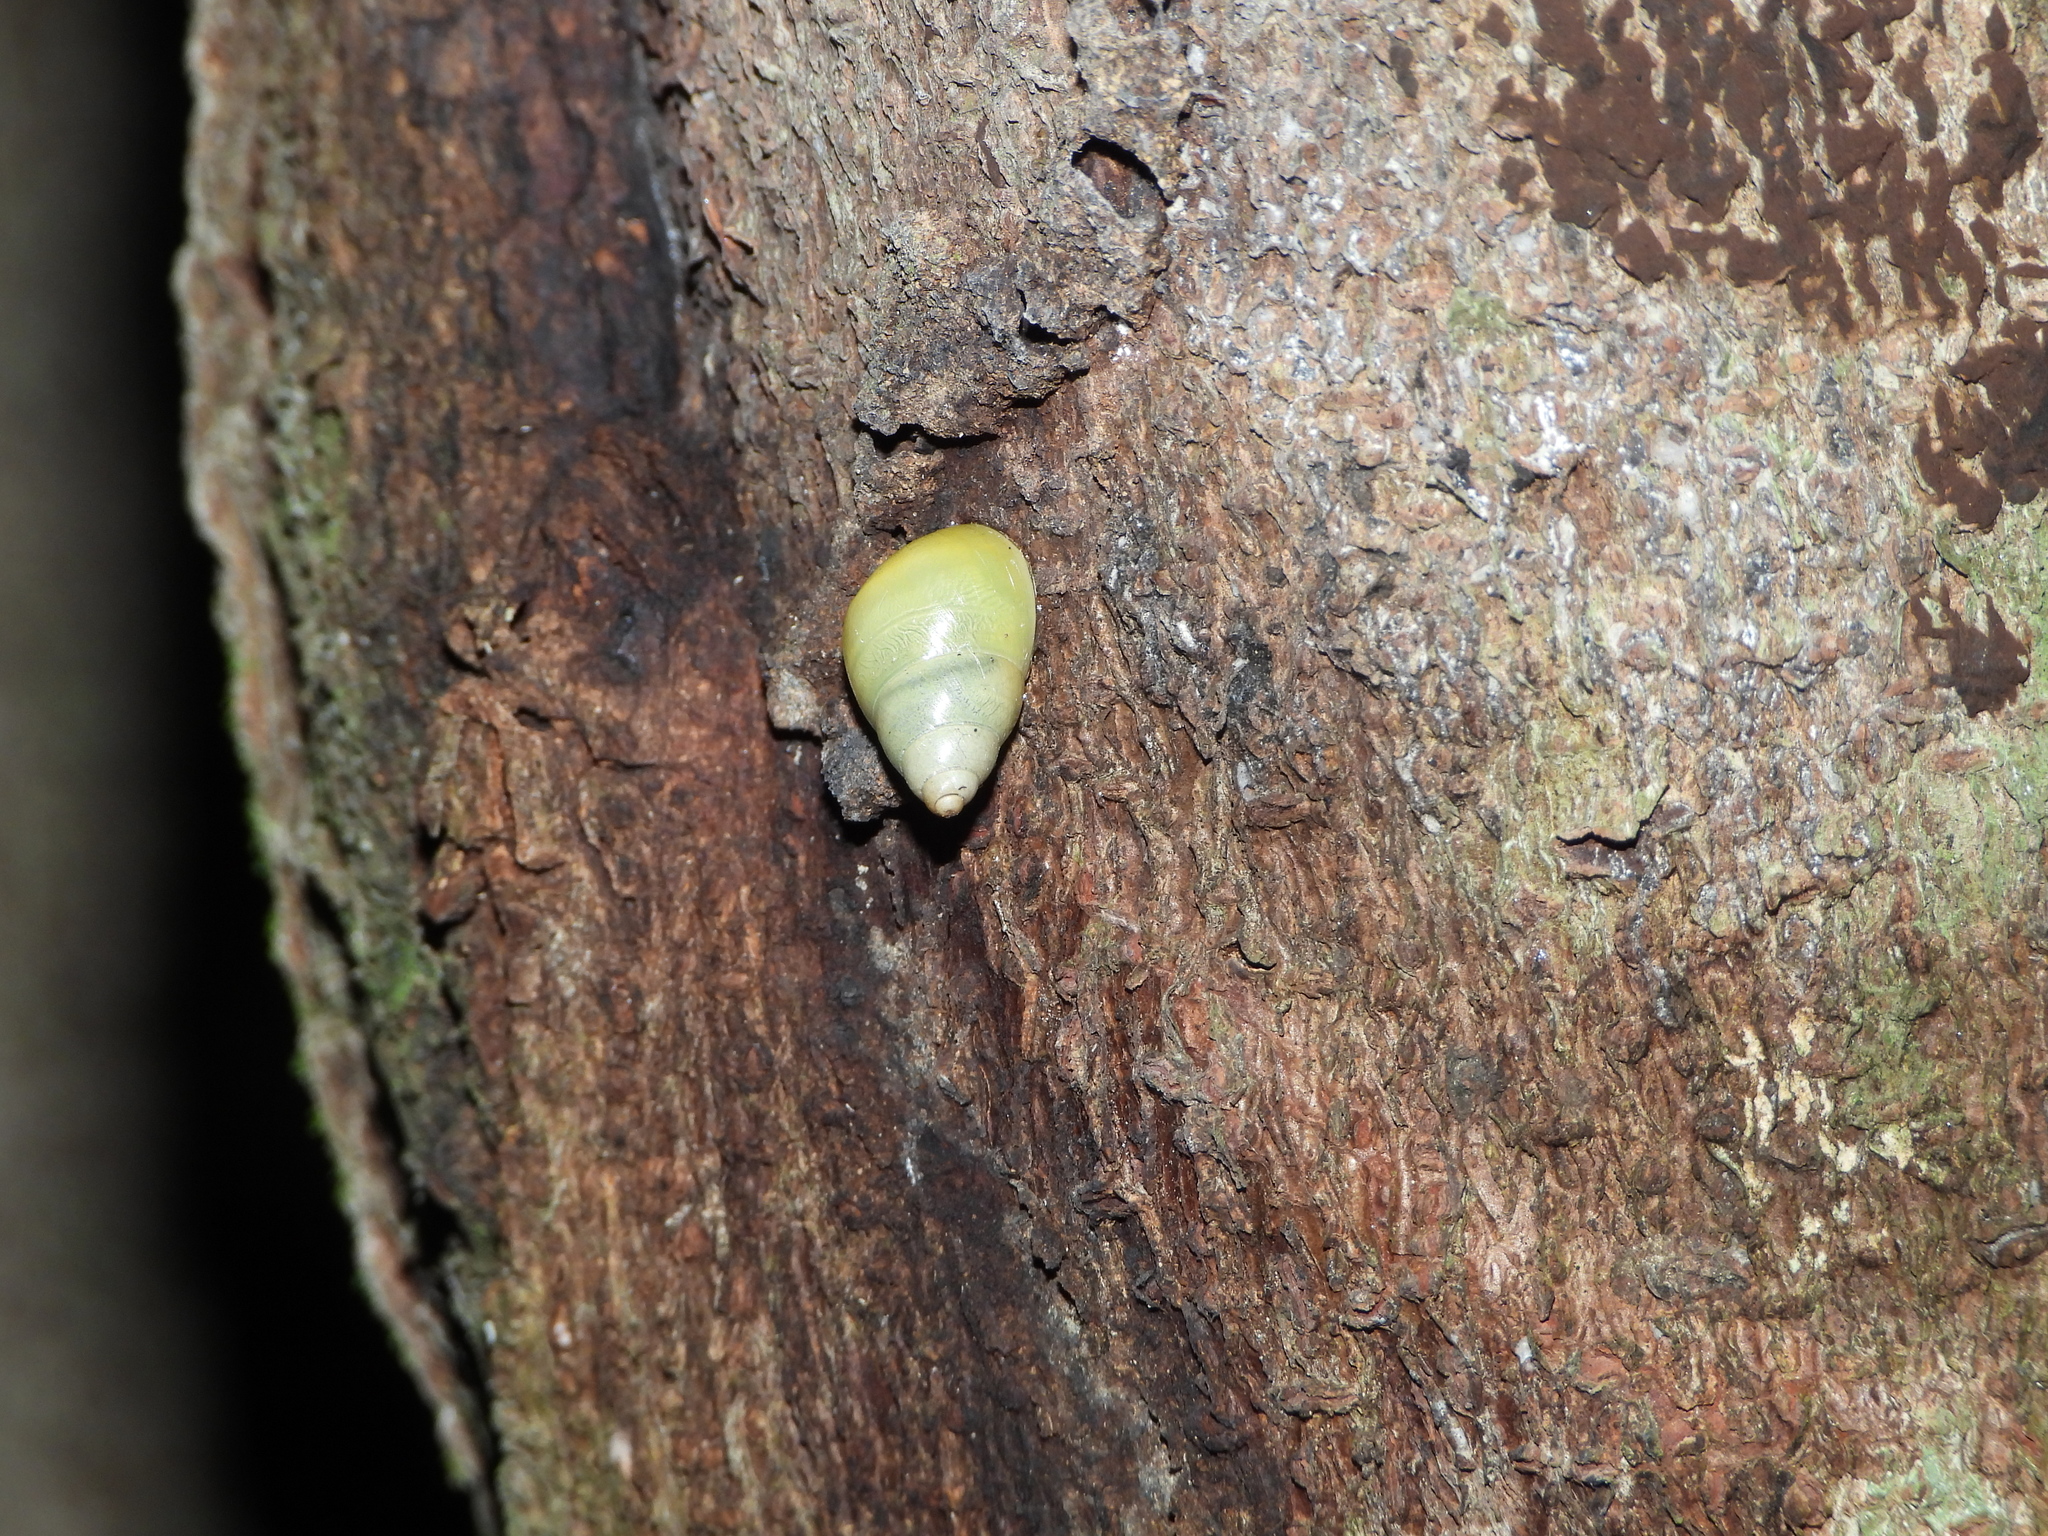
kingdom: Animalia
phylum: Mollusca
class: Gastropoda
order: Stylommatophora
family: Bulimulidae
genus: Drymaeus
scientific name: Drymaeus sulphureus
